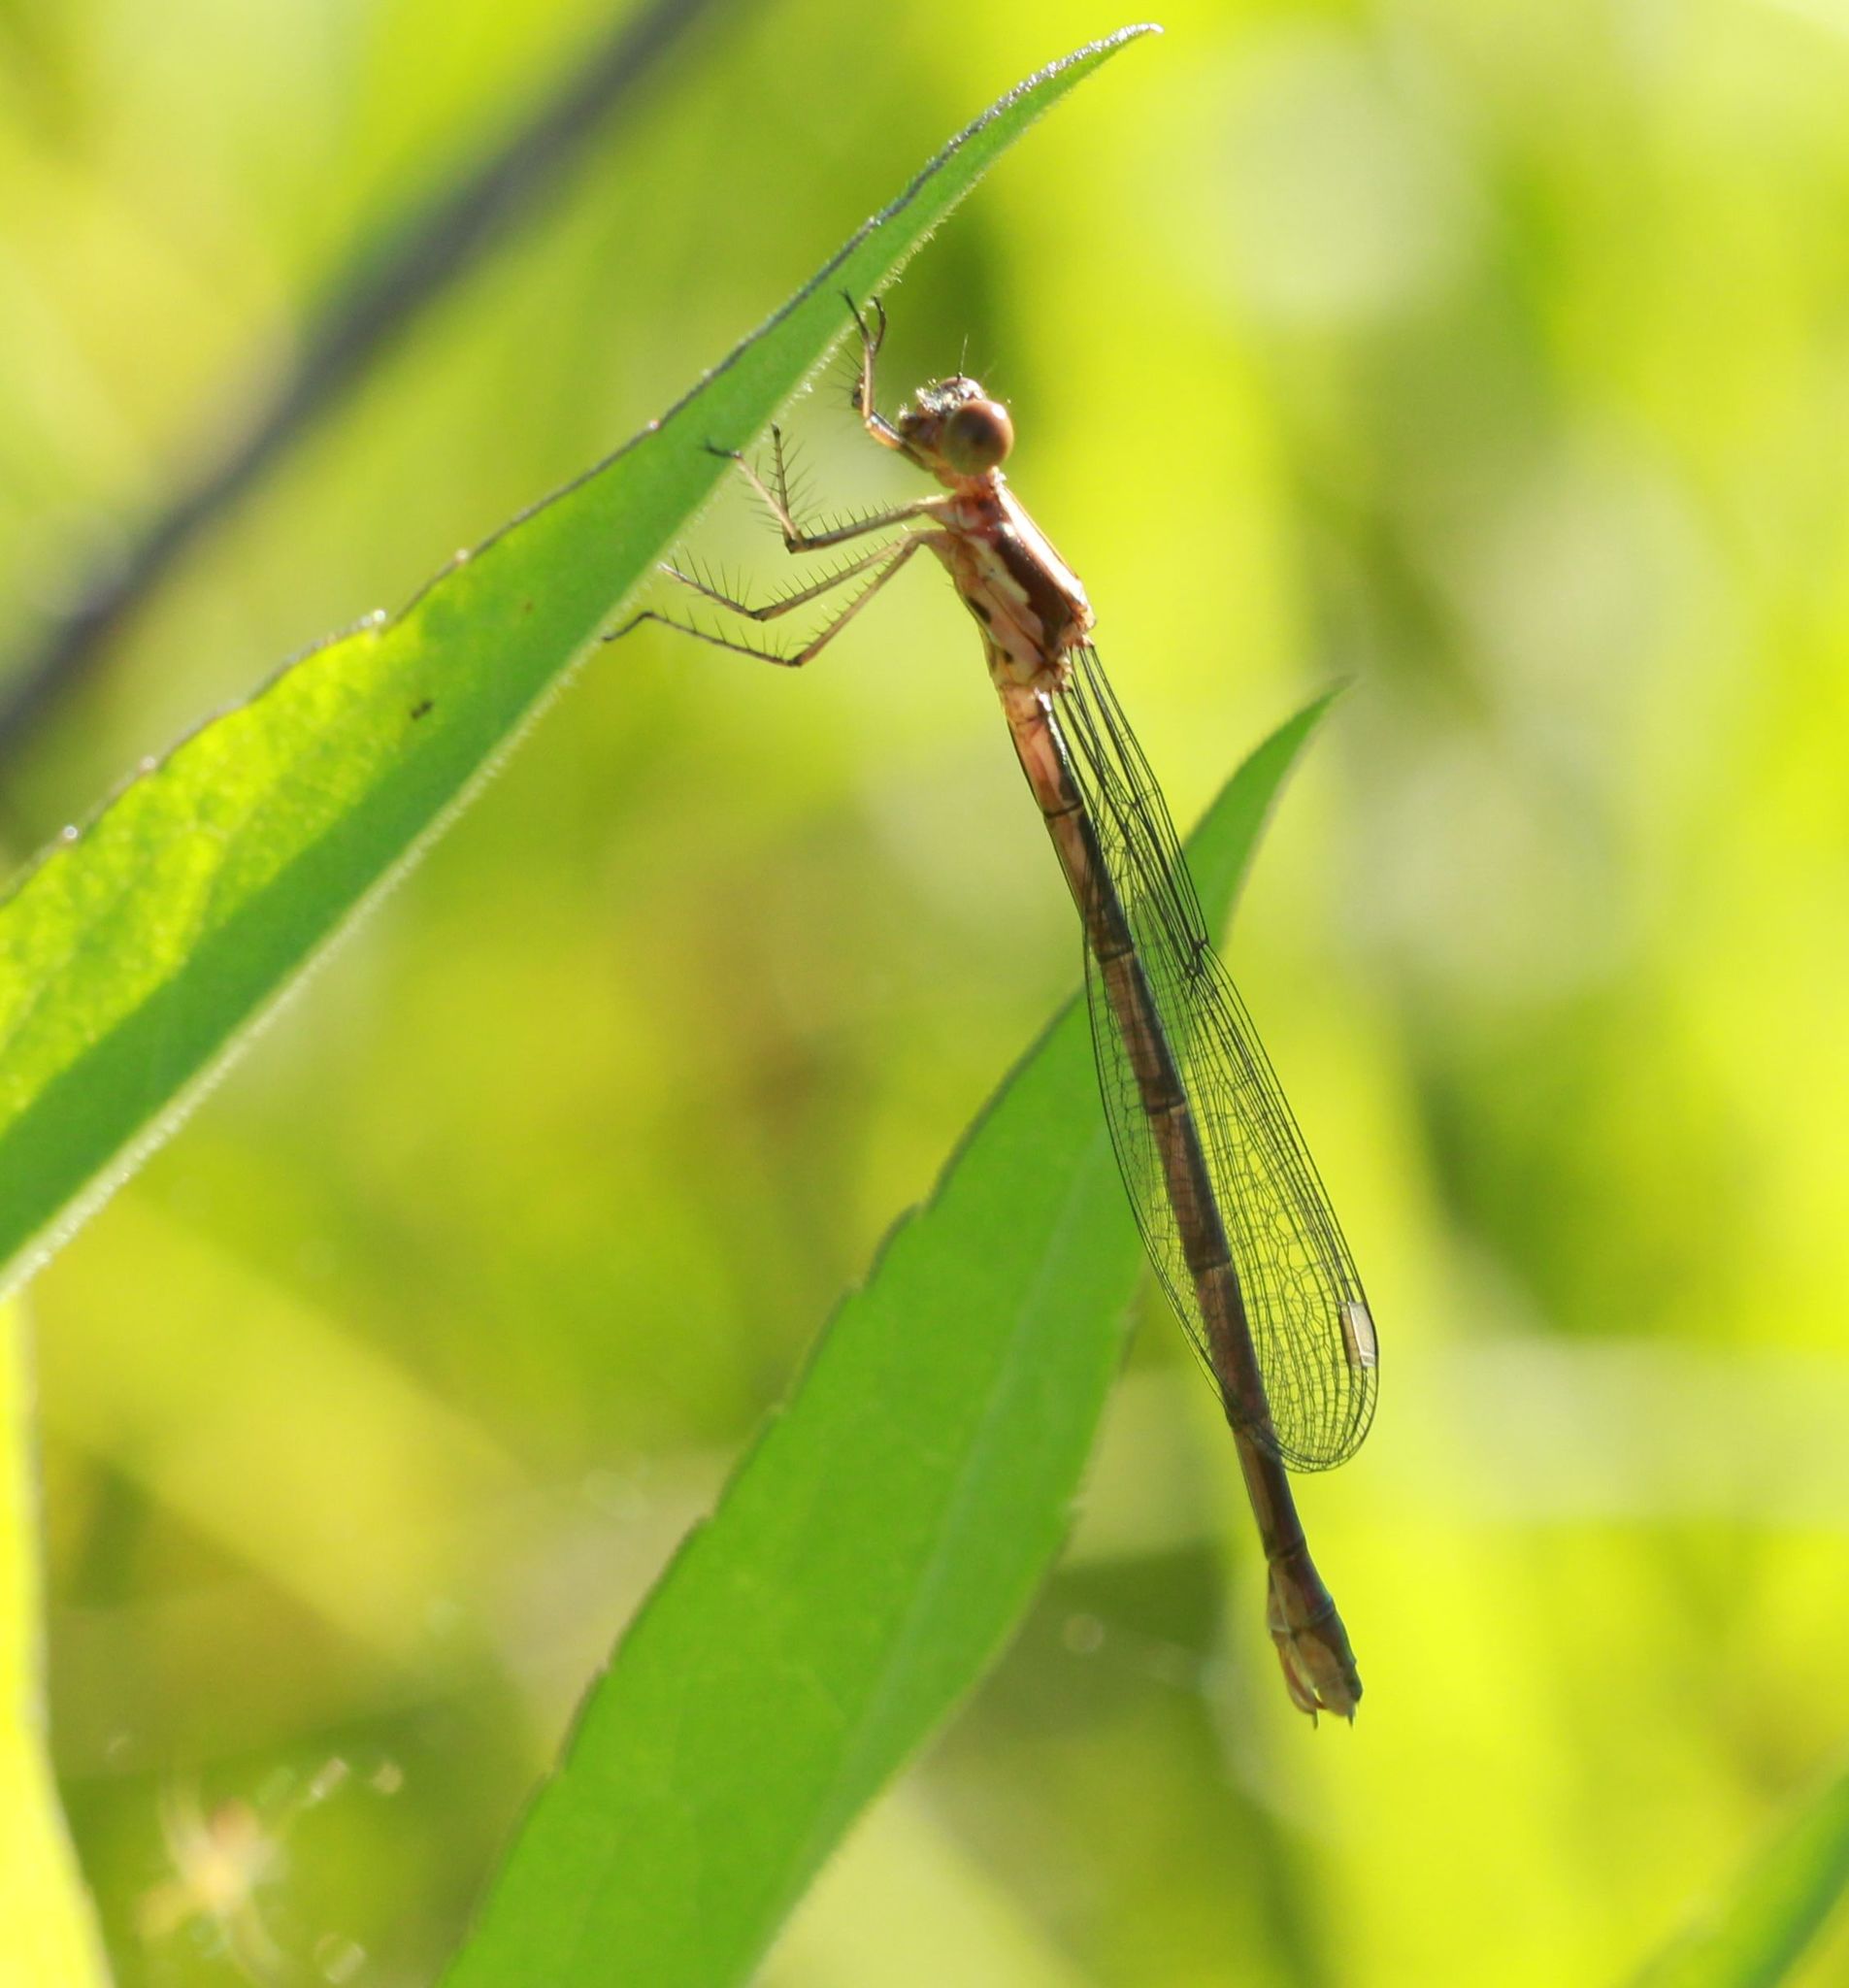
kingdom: Animalia
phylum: Arthropoda
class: Insecta
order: Odonata
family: Lestidae
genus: Lestes
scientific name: Lestes congener
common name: Spotted spreadwing
